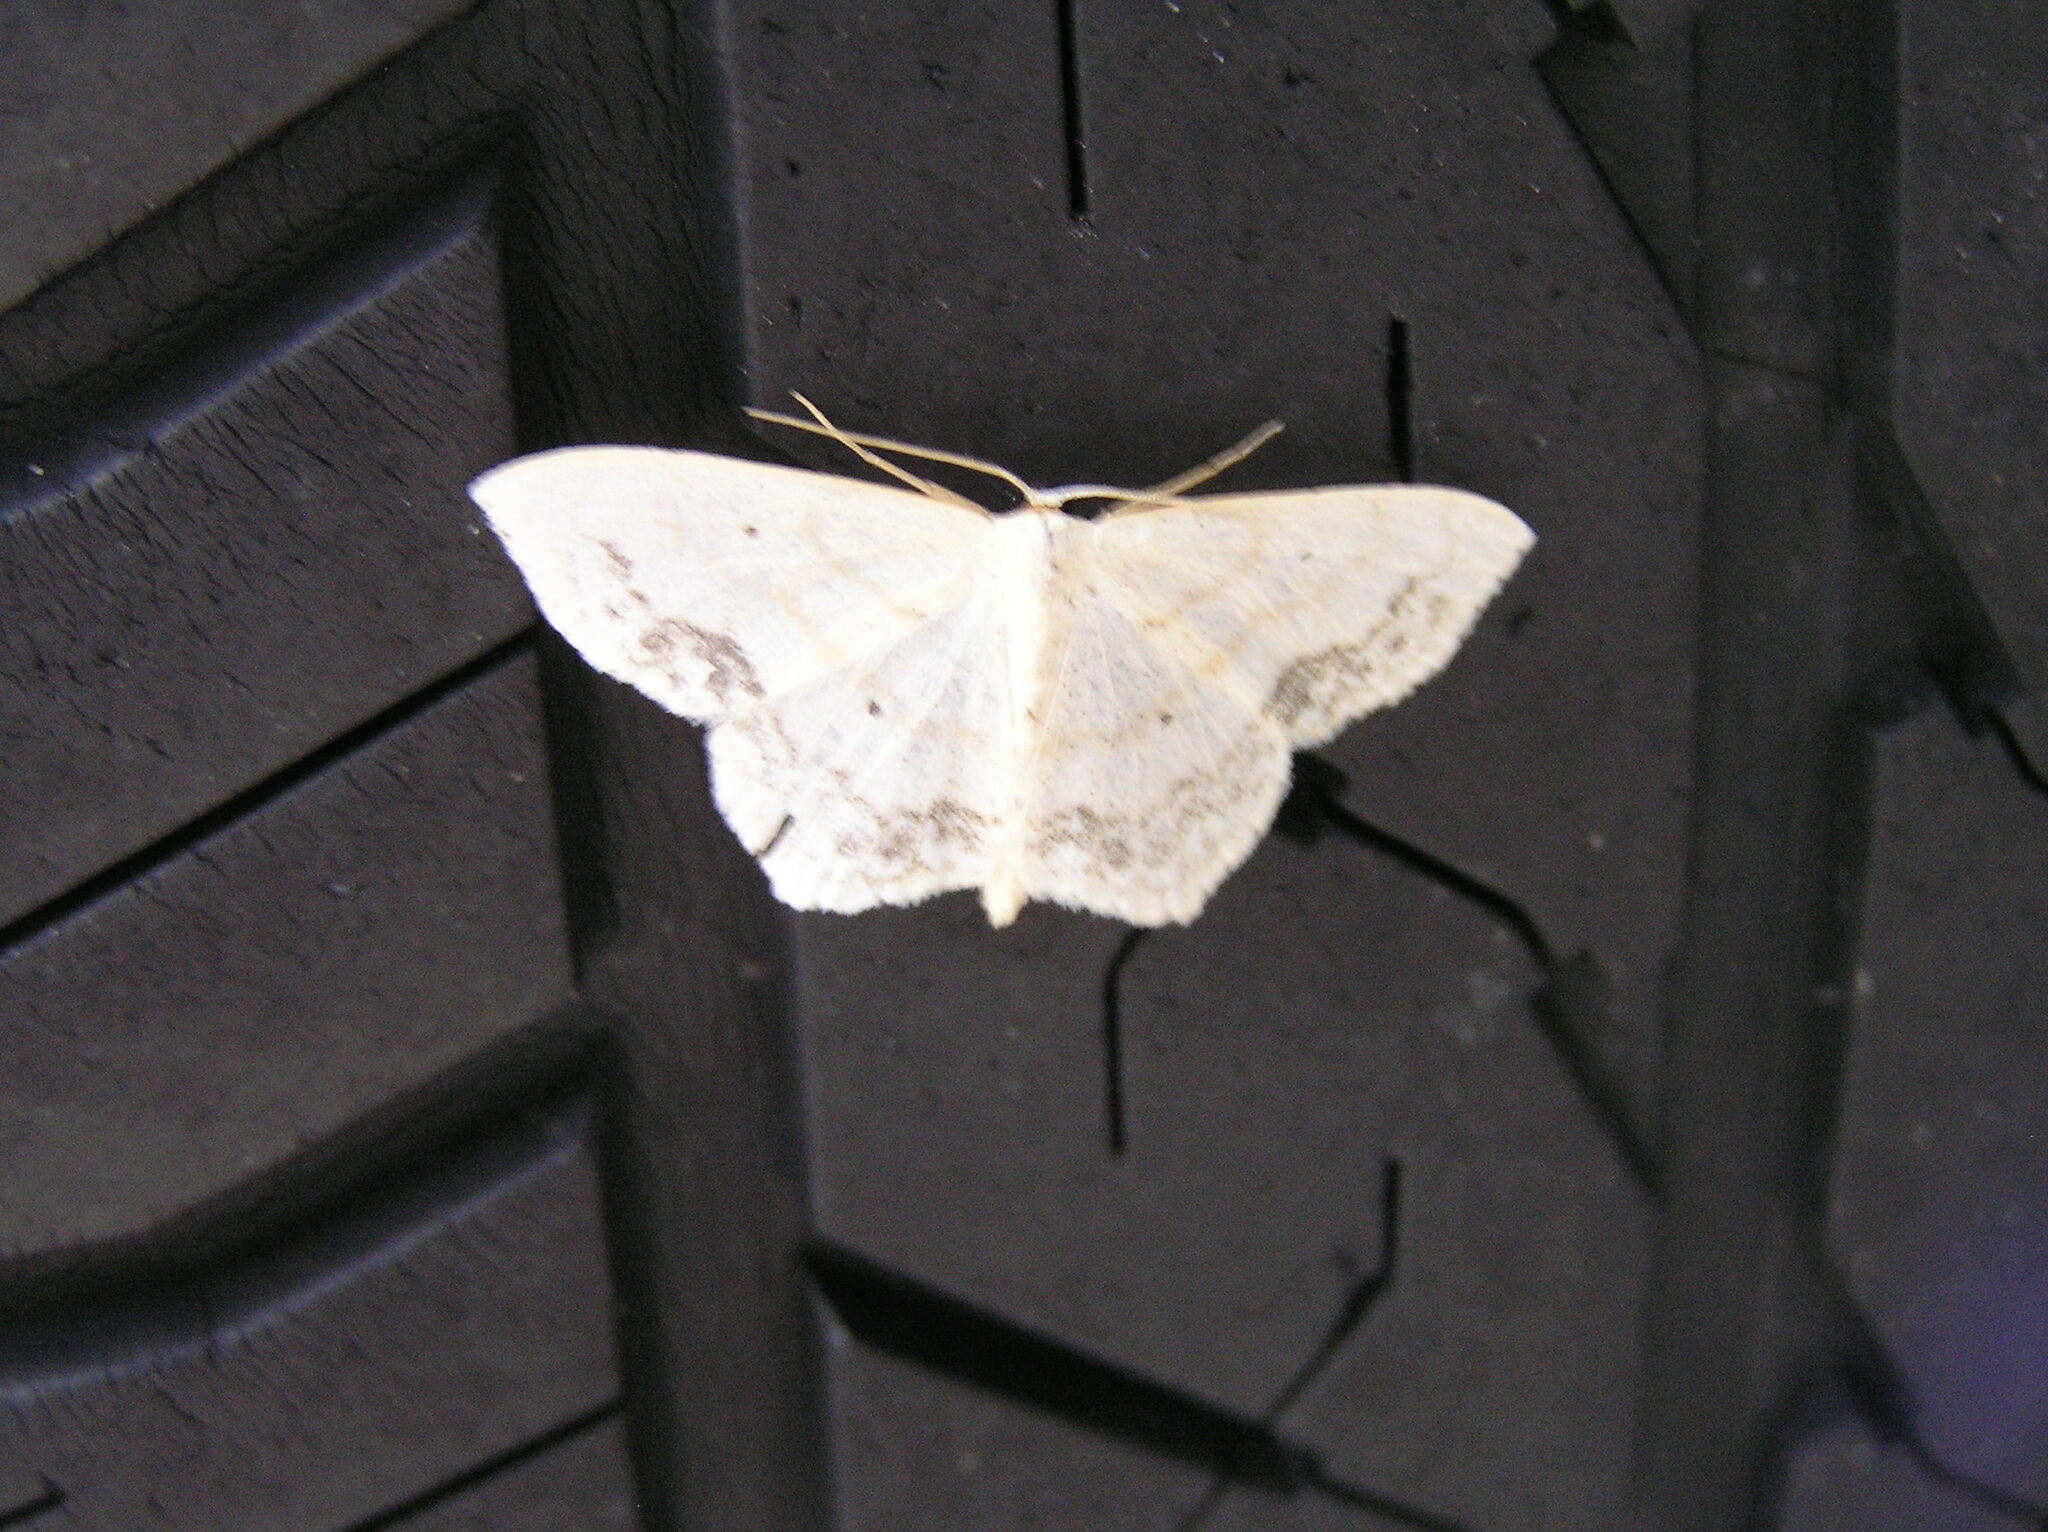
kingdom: Animalia
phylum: Arthropoda
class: Insecta
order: Lepidoptera
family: Geometridae
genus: Scopula
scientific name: Scopula limboundata
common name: Large lace border
